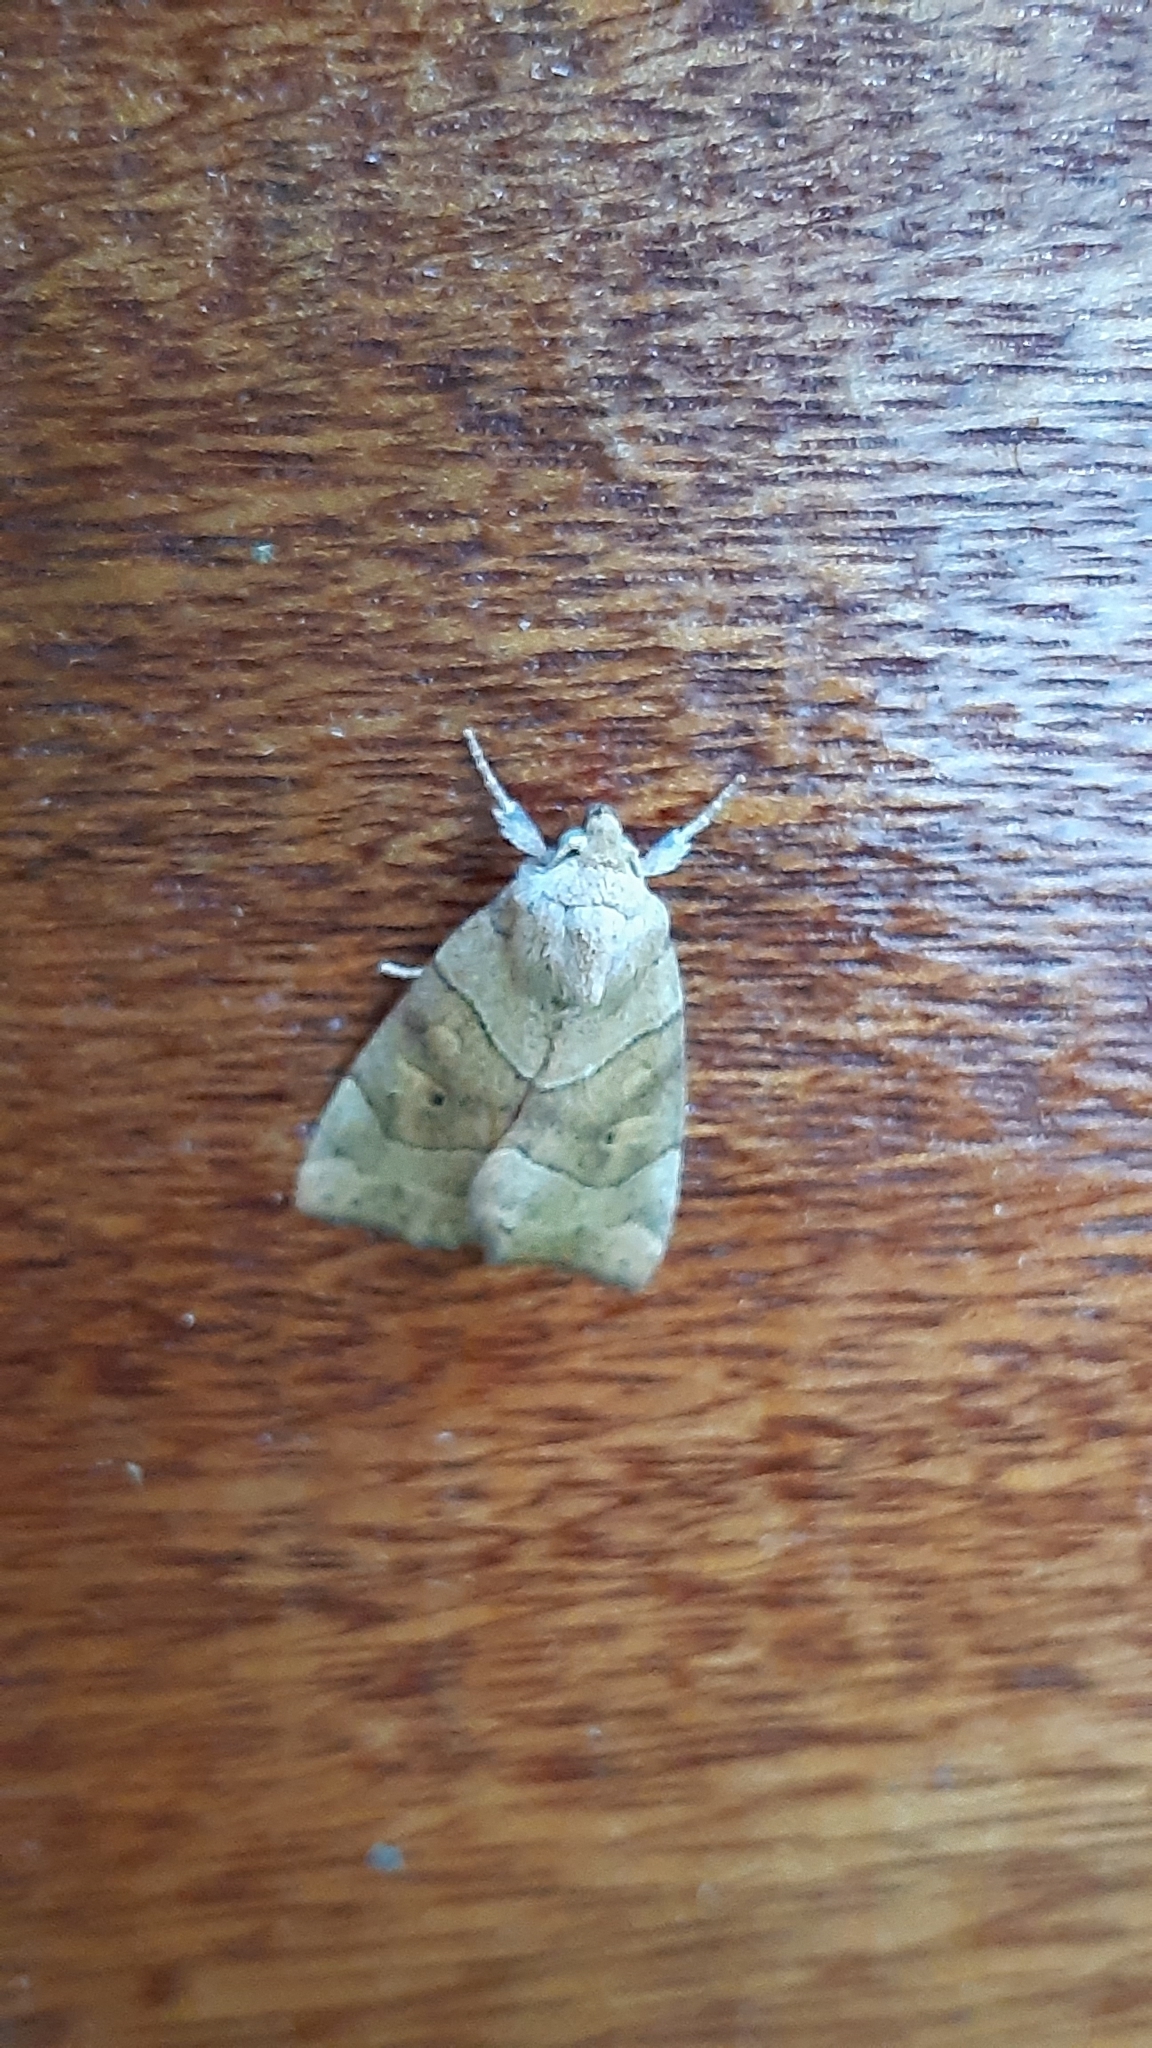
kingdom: Animalia
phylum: Arthropoda
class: Insecta
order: Lepidoptera
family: Noctuidae
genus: Cosmia
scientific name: Cosmia trapezina
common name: Dun-bar
